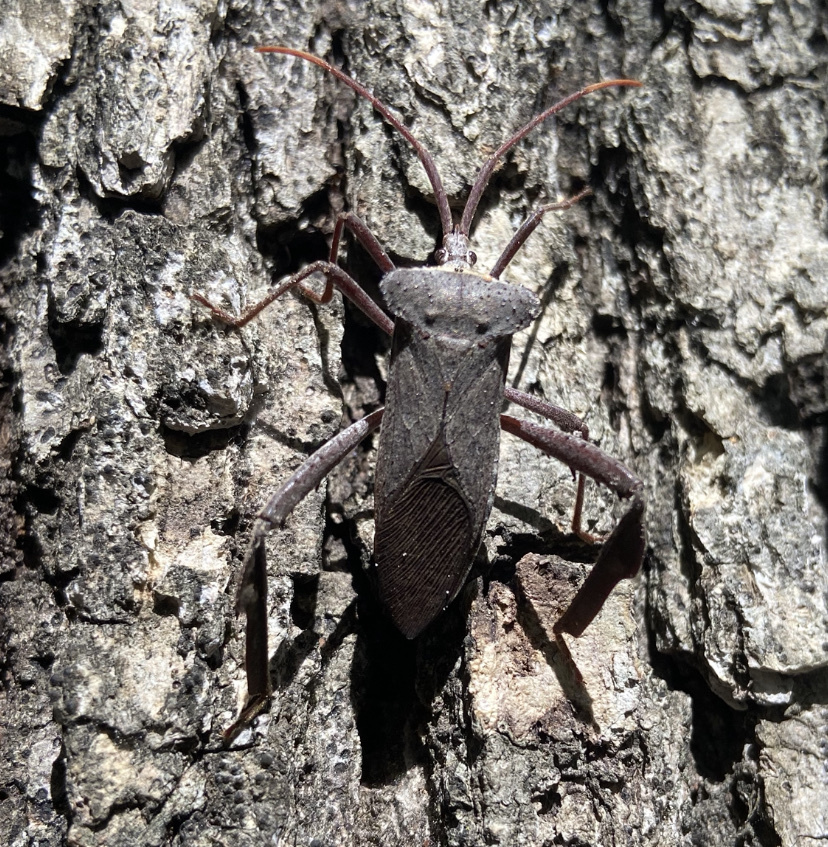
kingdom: Animalia
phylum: Arthropoda
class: Insecta
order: Hemiptera
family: Coreidae
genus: Acanthocephala
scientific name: Acanthocephala declivis
